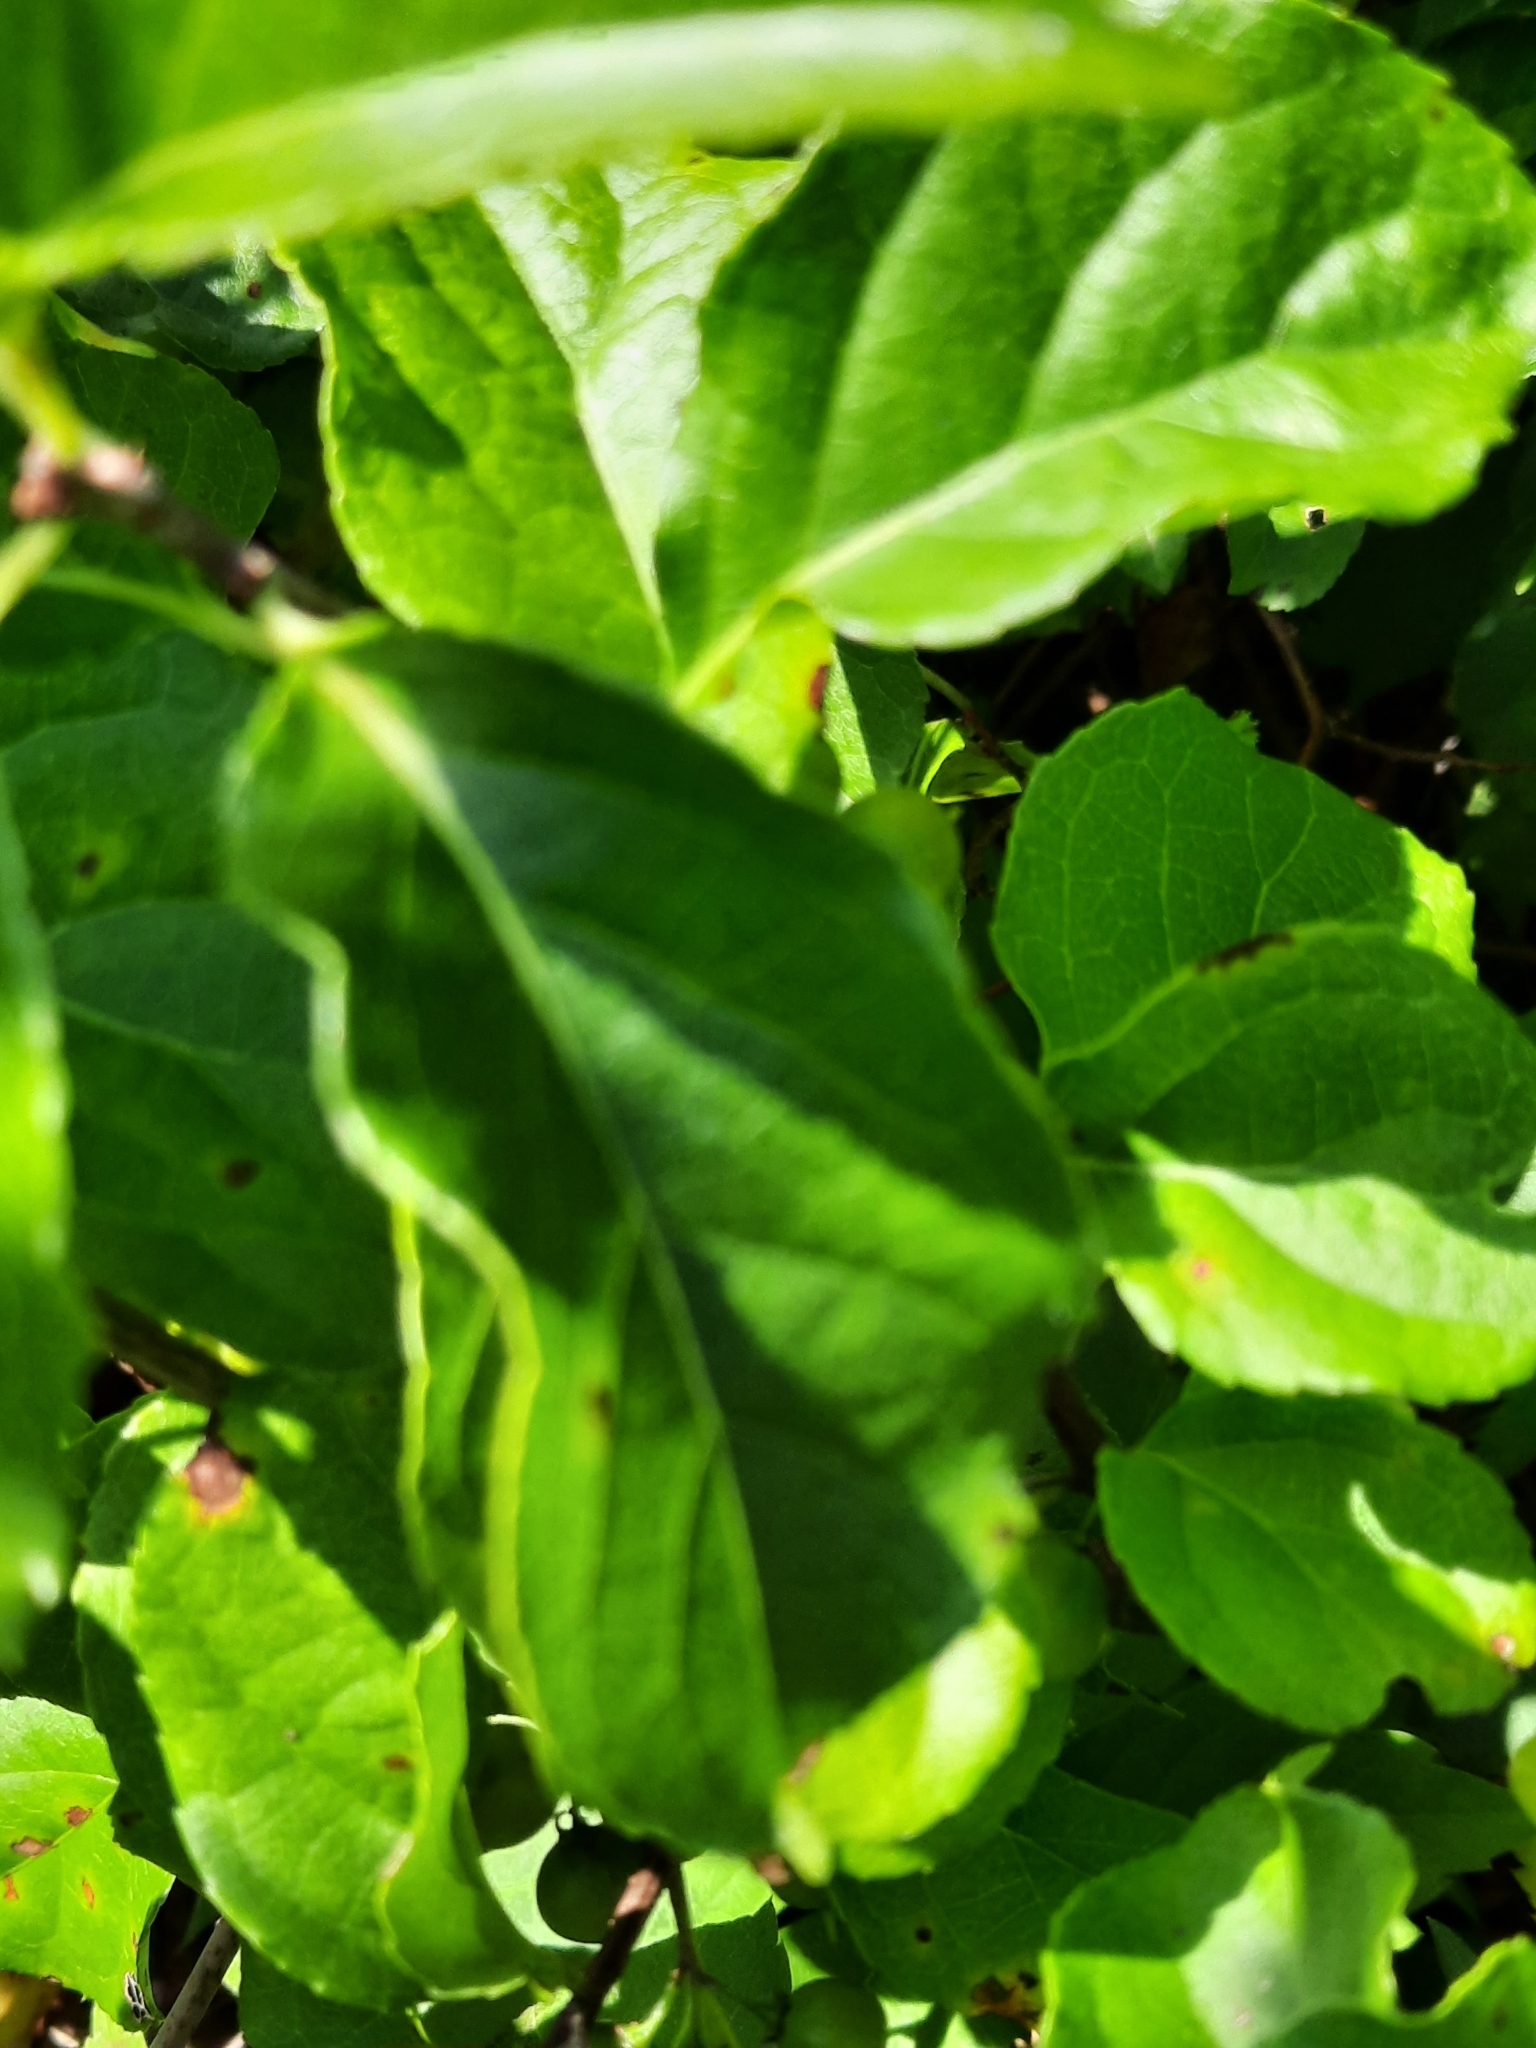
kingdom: Plantae
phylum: Tracheophyta
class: Magnoliopsida
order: Celastrales
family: Celastraceae
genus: Celastrus
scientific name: Celastrus orbiculatus
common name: Oriental bittersweet
